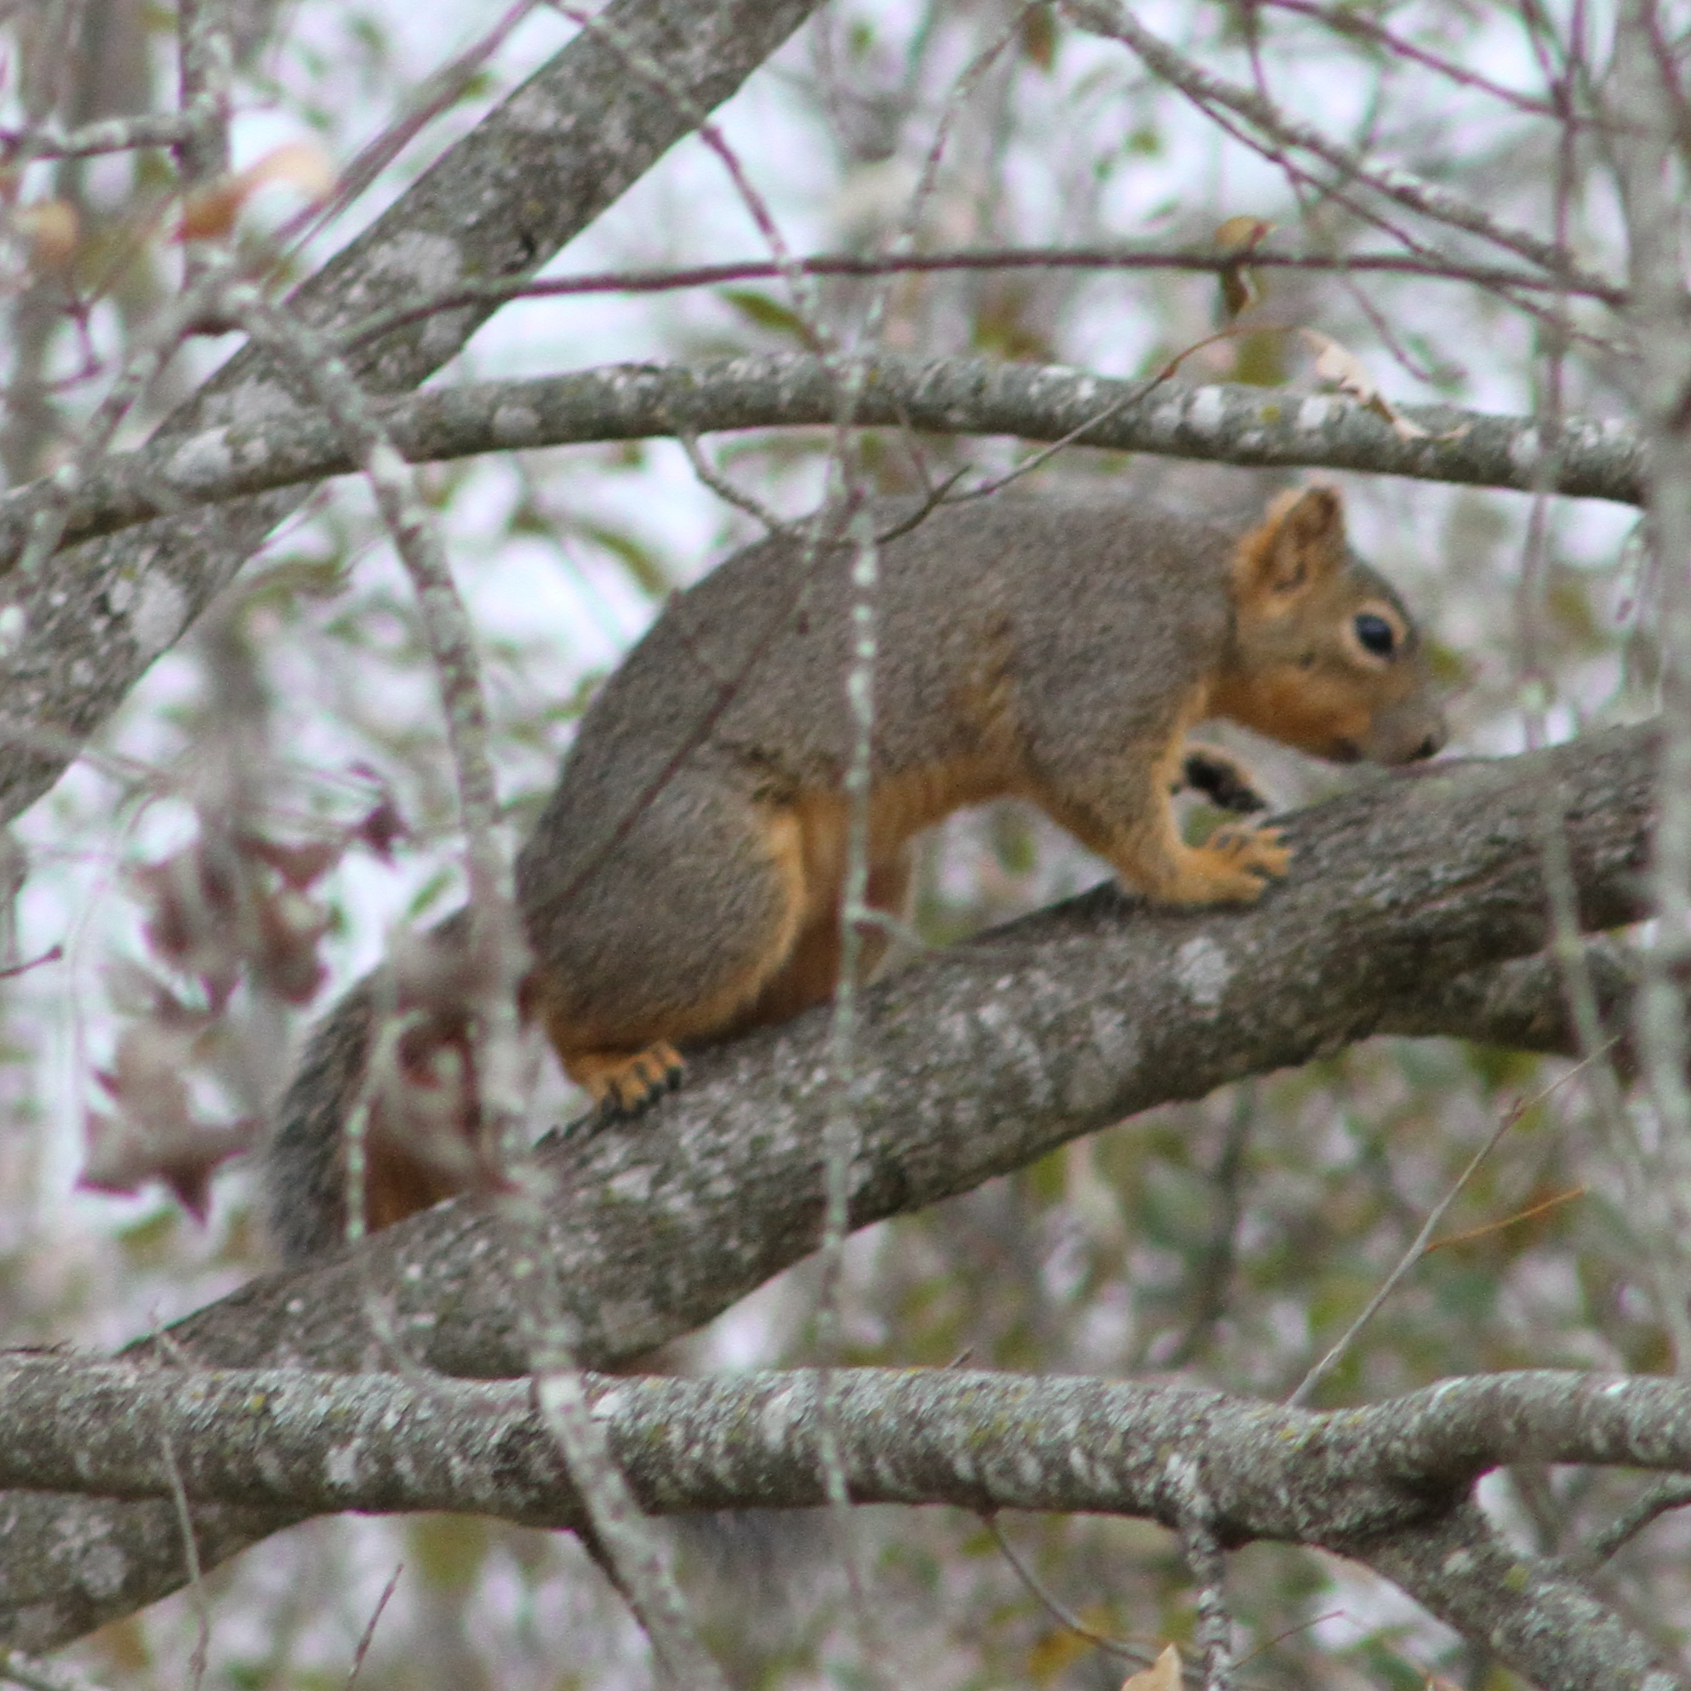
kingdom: Animalia
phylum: Chordata
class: Mammalia
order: Rodentia
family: Sciuridae
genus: Sciurus
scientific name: Sciurus niger
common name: Fox squirrel
